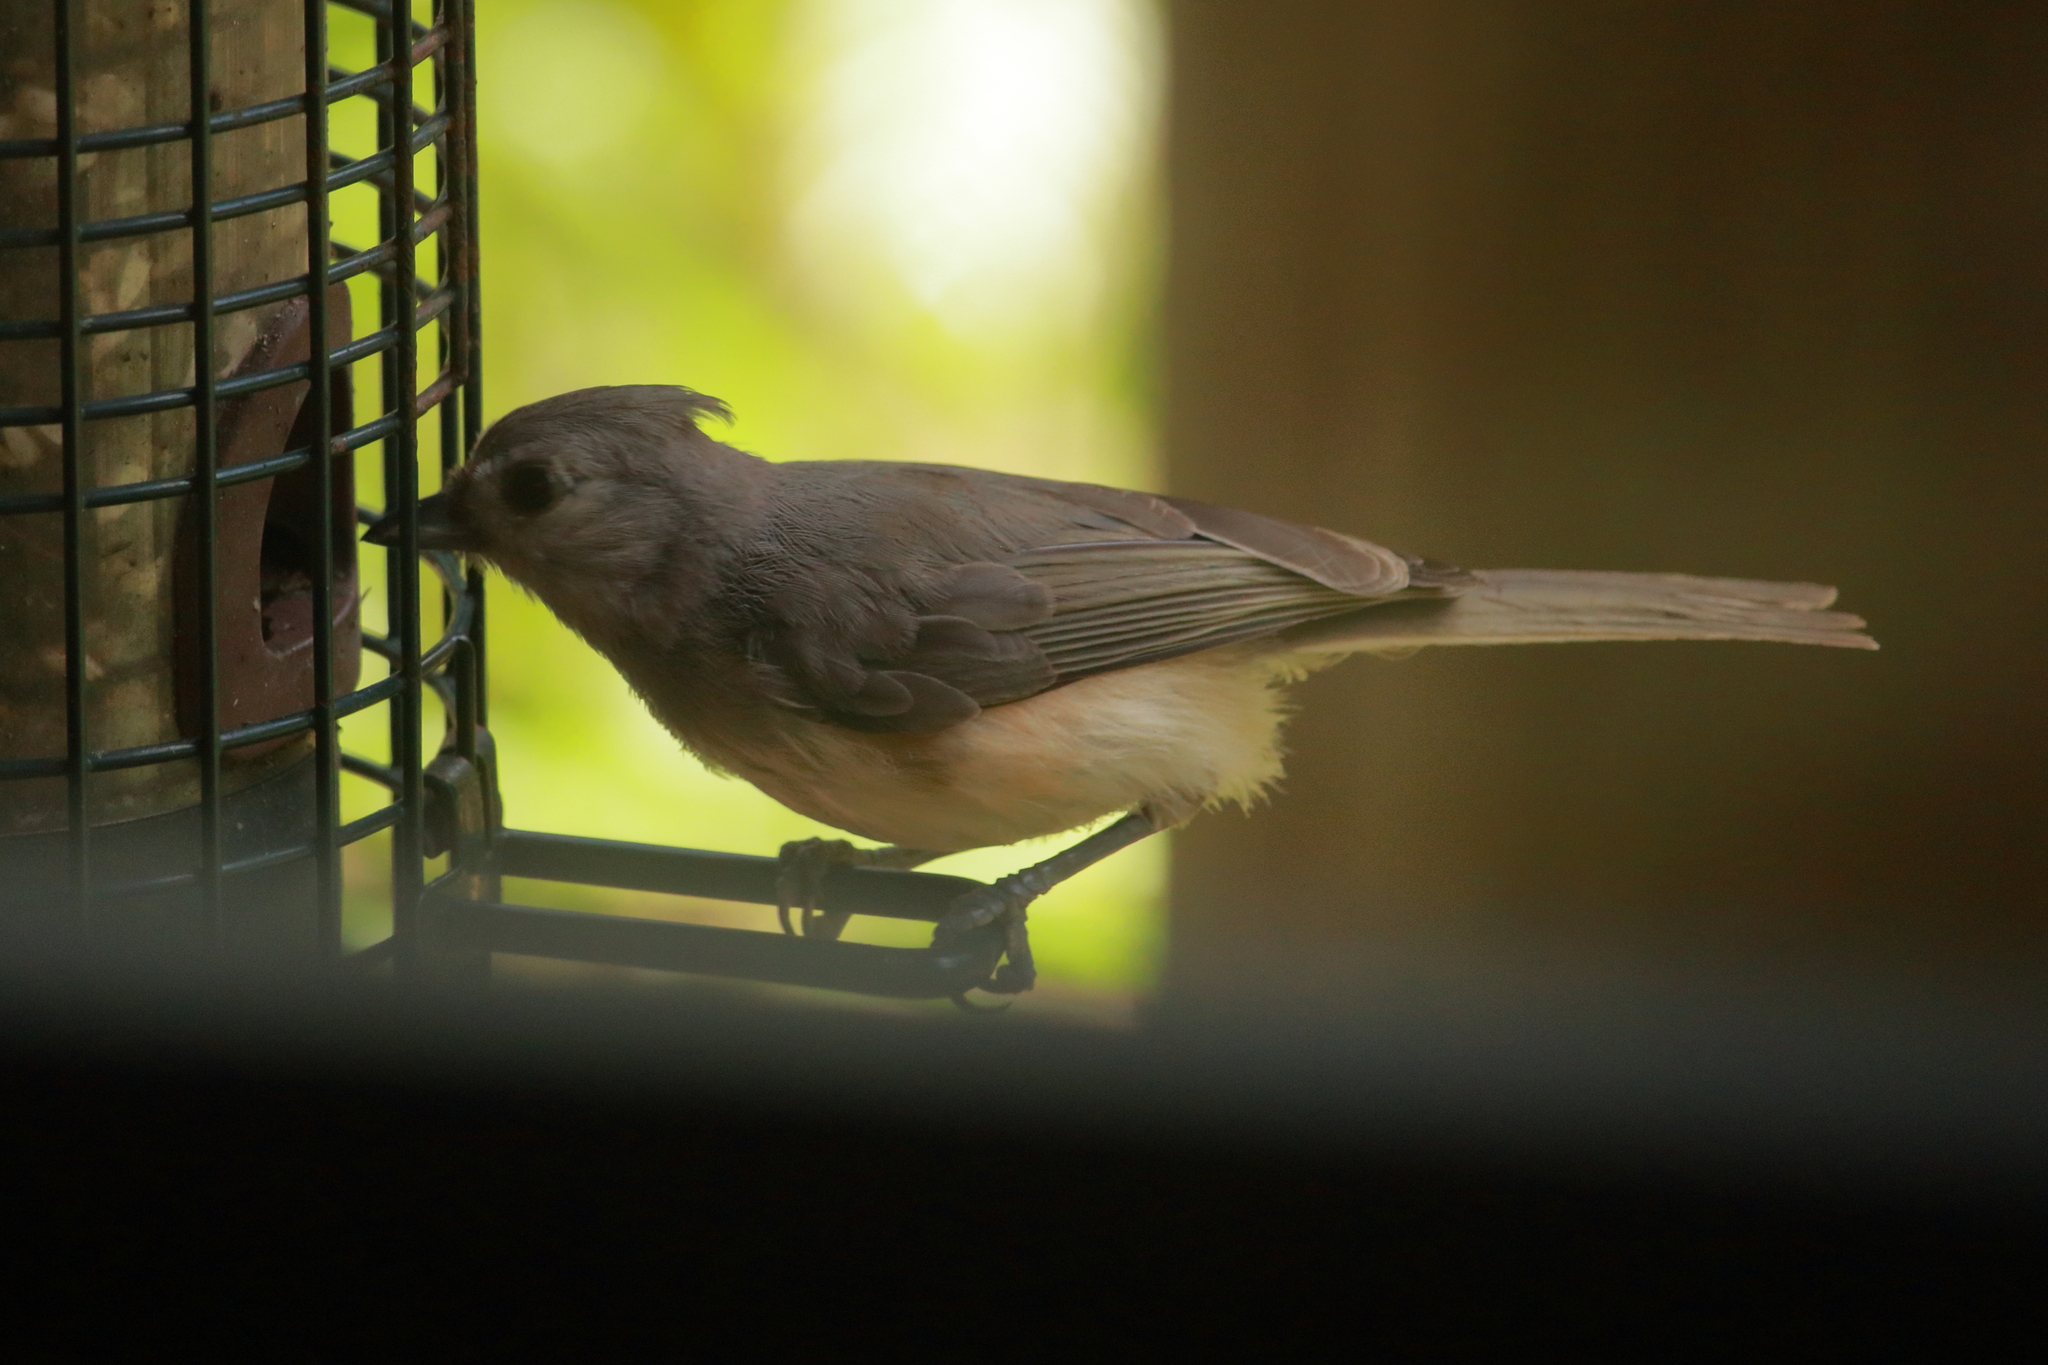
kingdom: Animalia
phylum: Chordata
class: Aves
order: Passeriformes
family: Paridae
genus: Baeolophus
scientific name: Baeolophus bicolor
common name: Tufted titmouse
